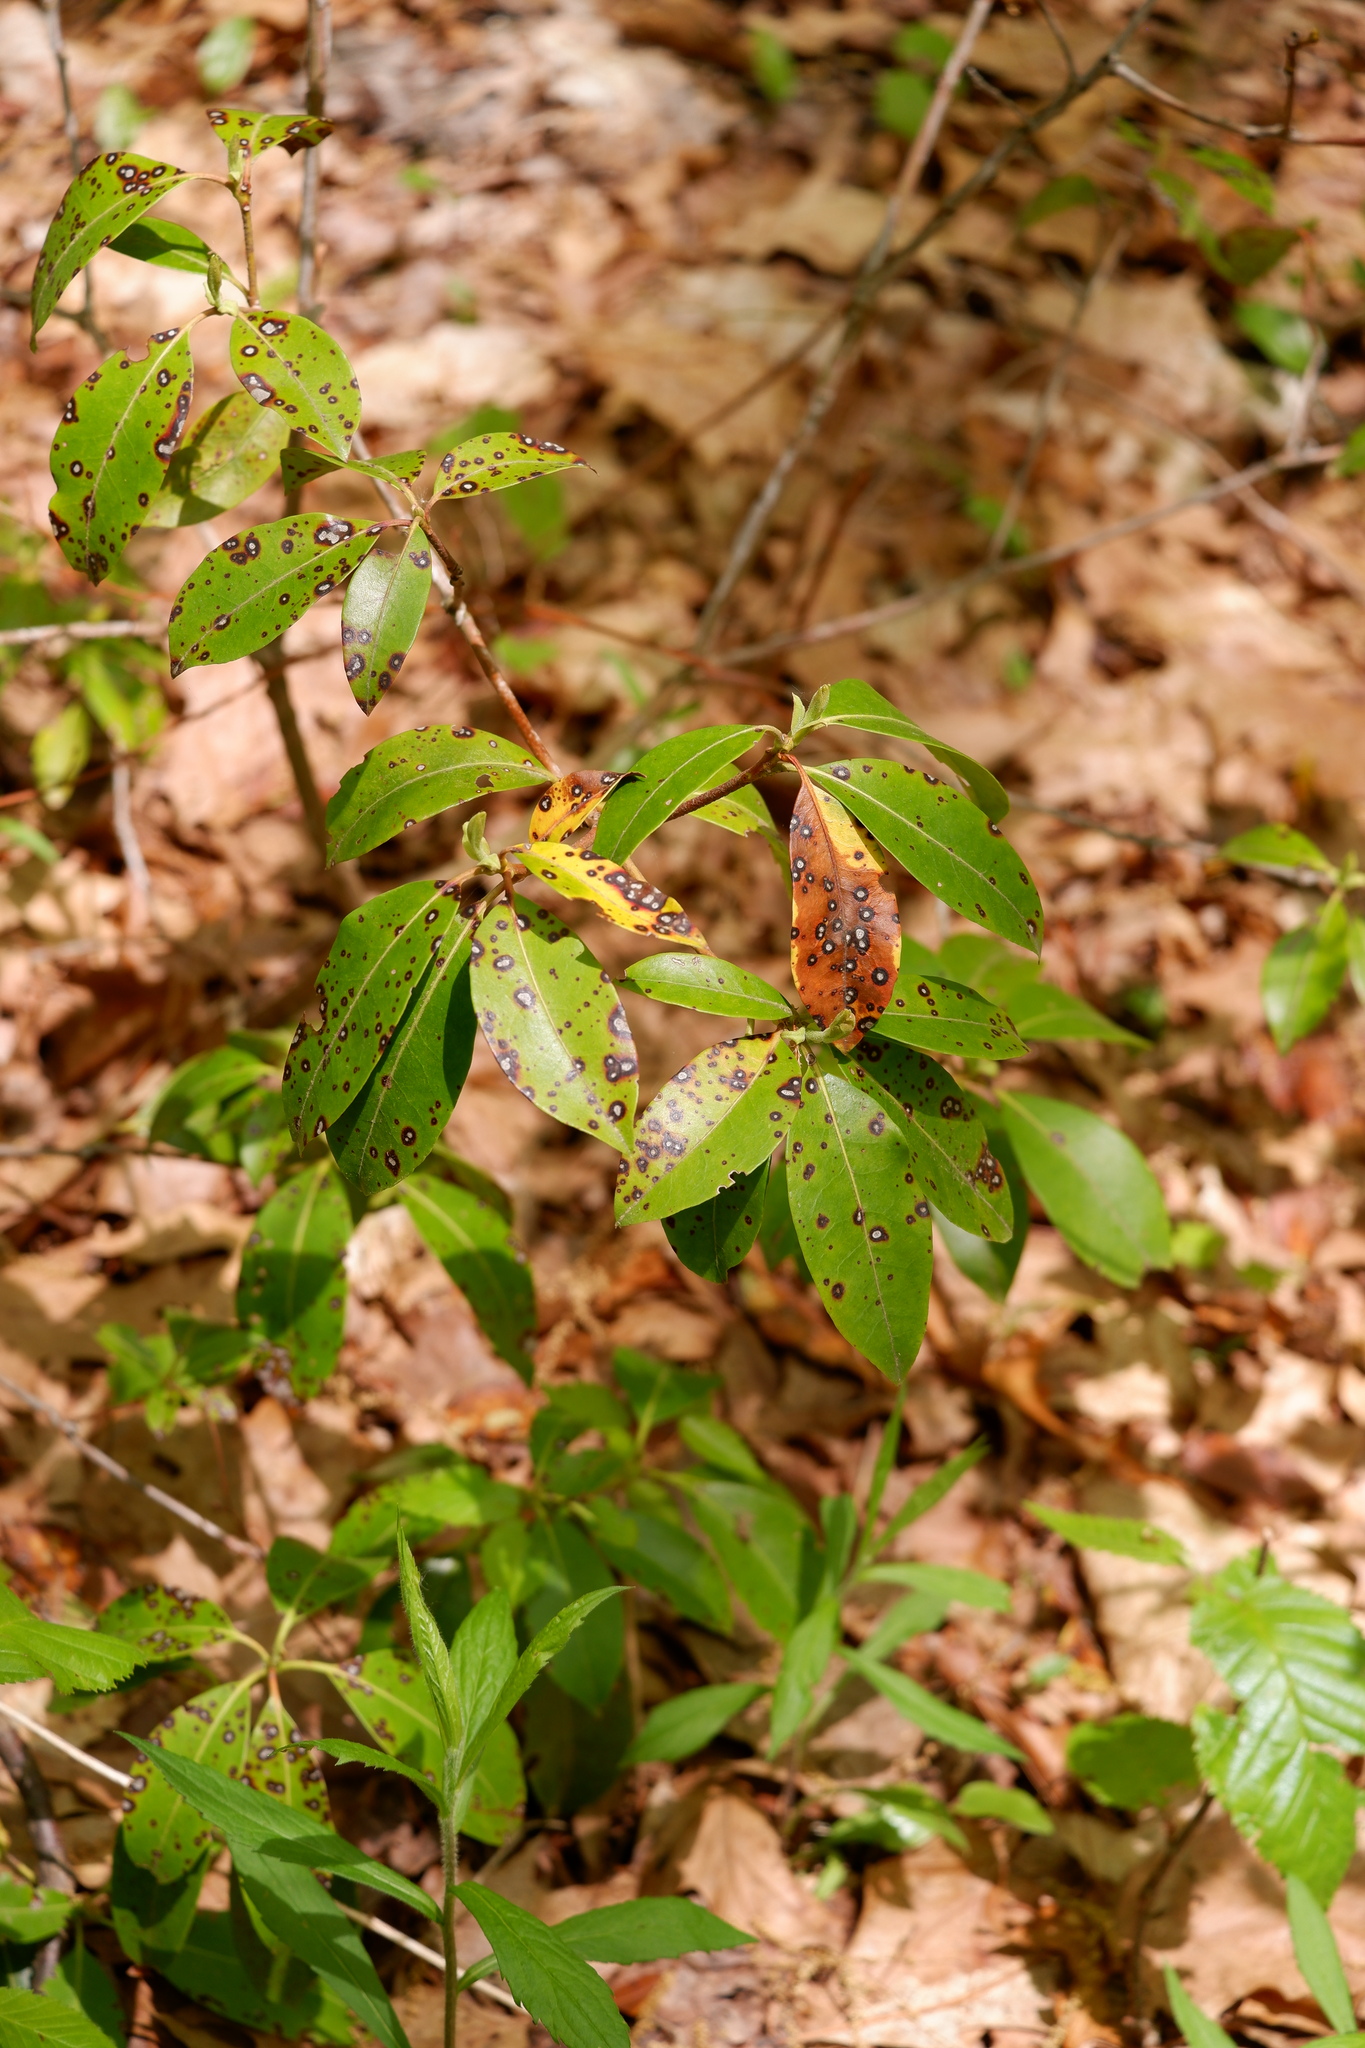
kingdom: Fungi
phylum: Ascomycota
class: Dothideomycetes
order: Mycosphaerellales
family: Mycosphaerellaceae
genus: Mycosphaerella
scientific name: Mycosphaerella colorata
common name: Mountain laurel leaf spot
